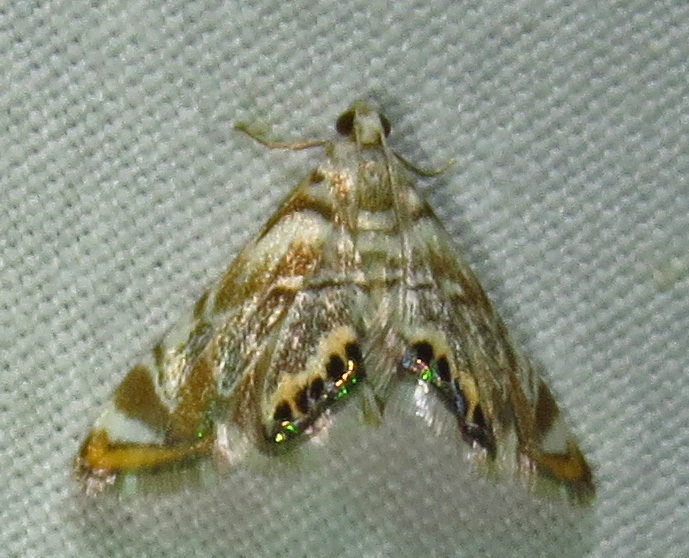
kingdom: Animalia
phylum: Arthropoda
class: Insecta
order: Lepidoptera
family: Crambidae
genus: Eoparargyractis
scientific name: Eoparargyractis irroratalis
